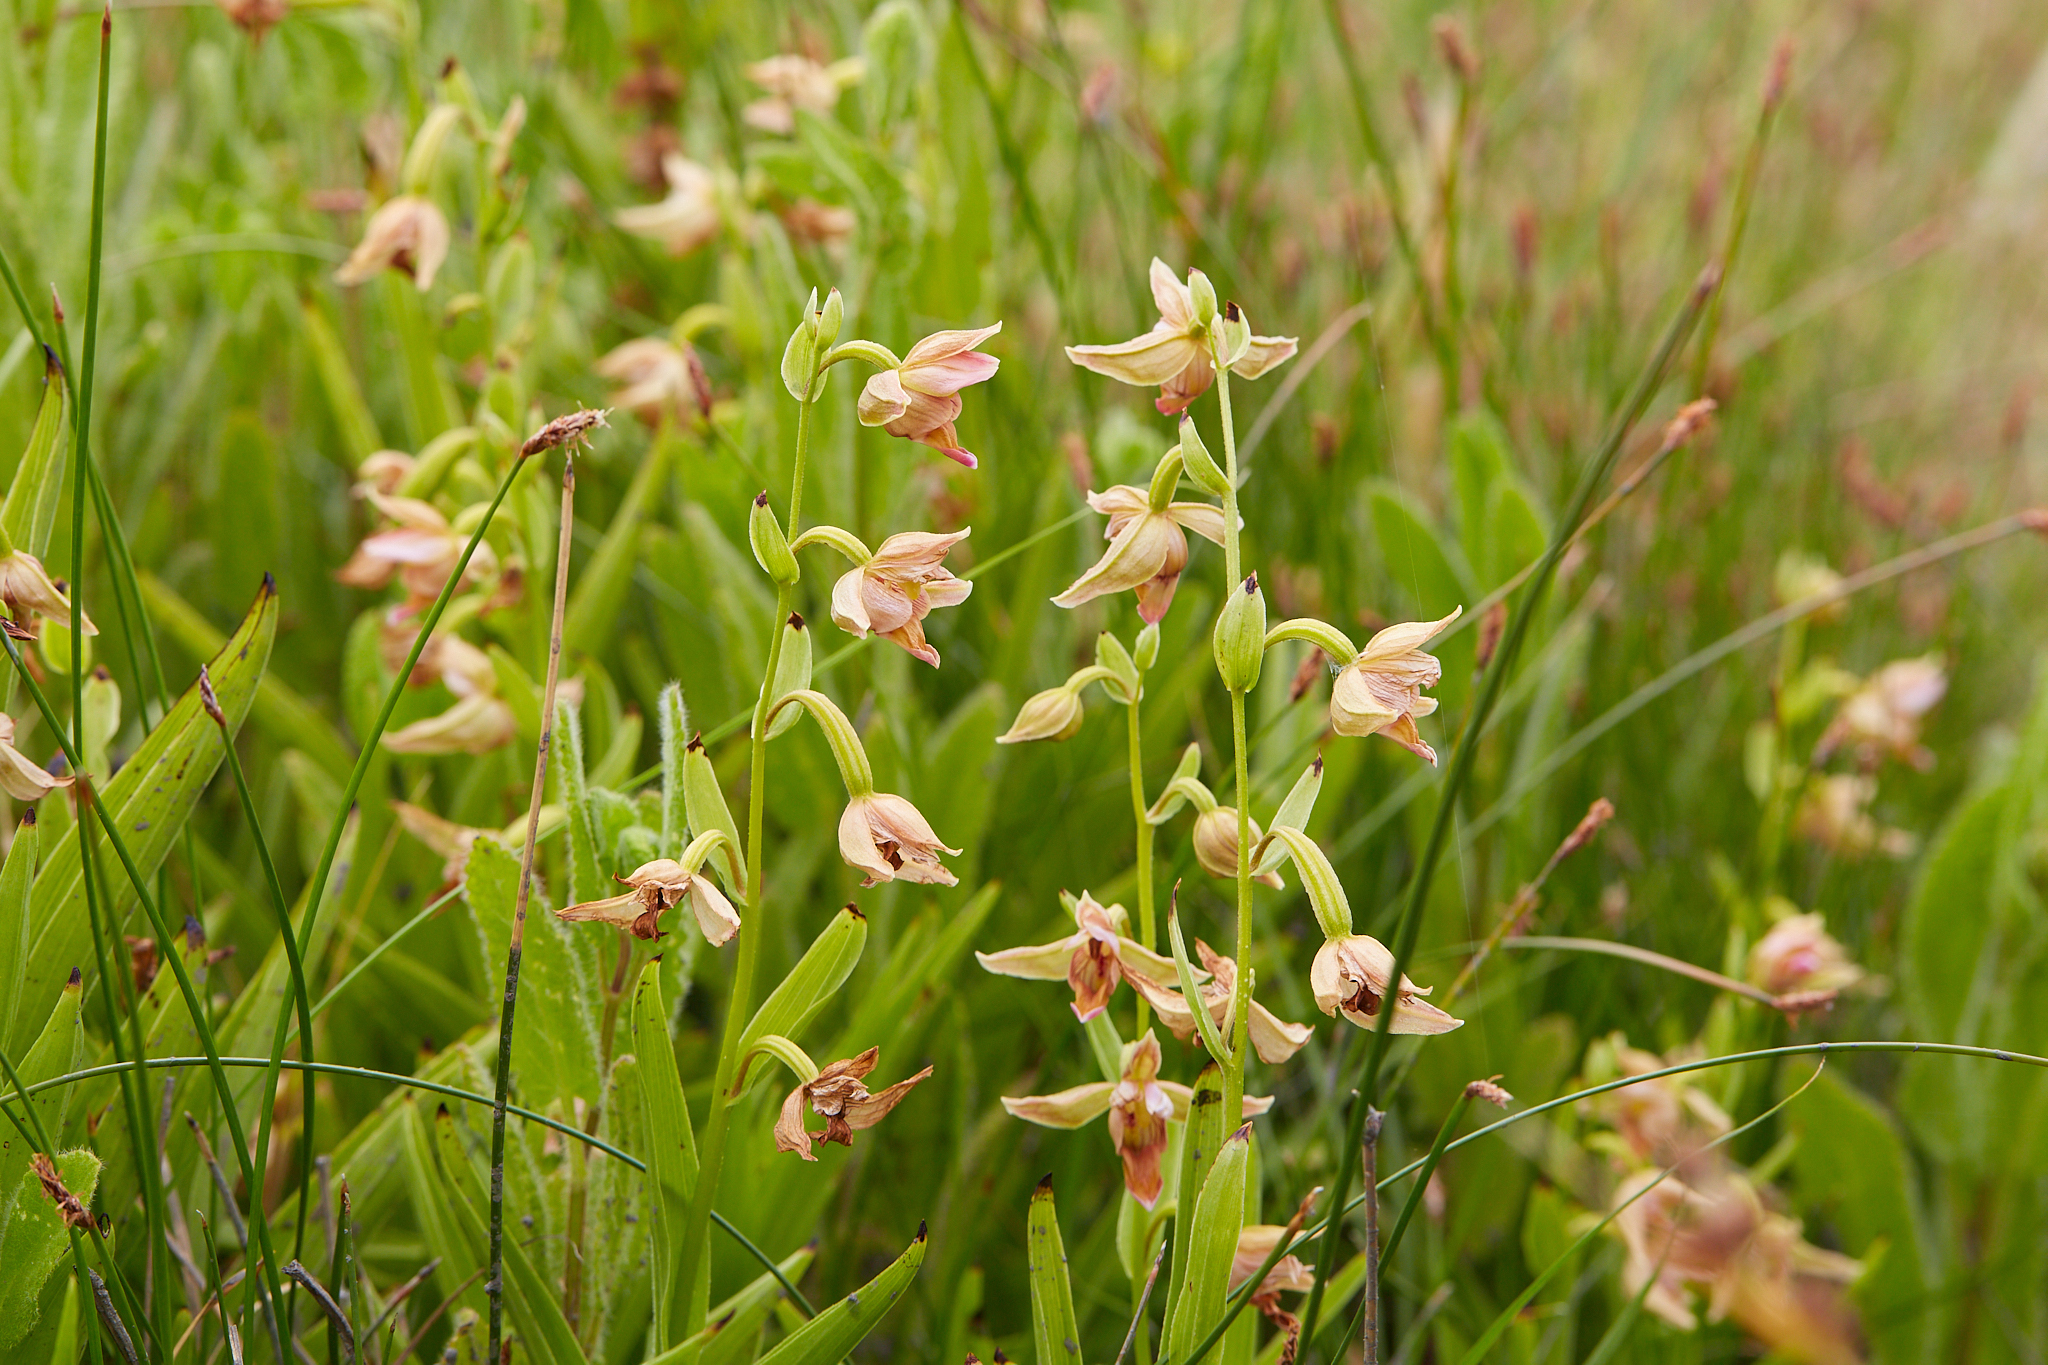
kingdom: Plantae
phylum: Tracheophyta
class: Liliopsida
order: Asparagales
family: Orchidaceae
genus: Epipactis
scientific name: Epipactis gigantea
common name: Chatterbox
